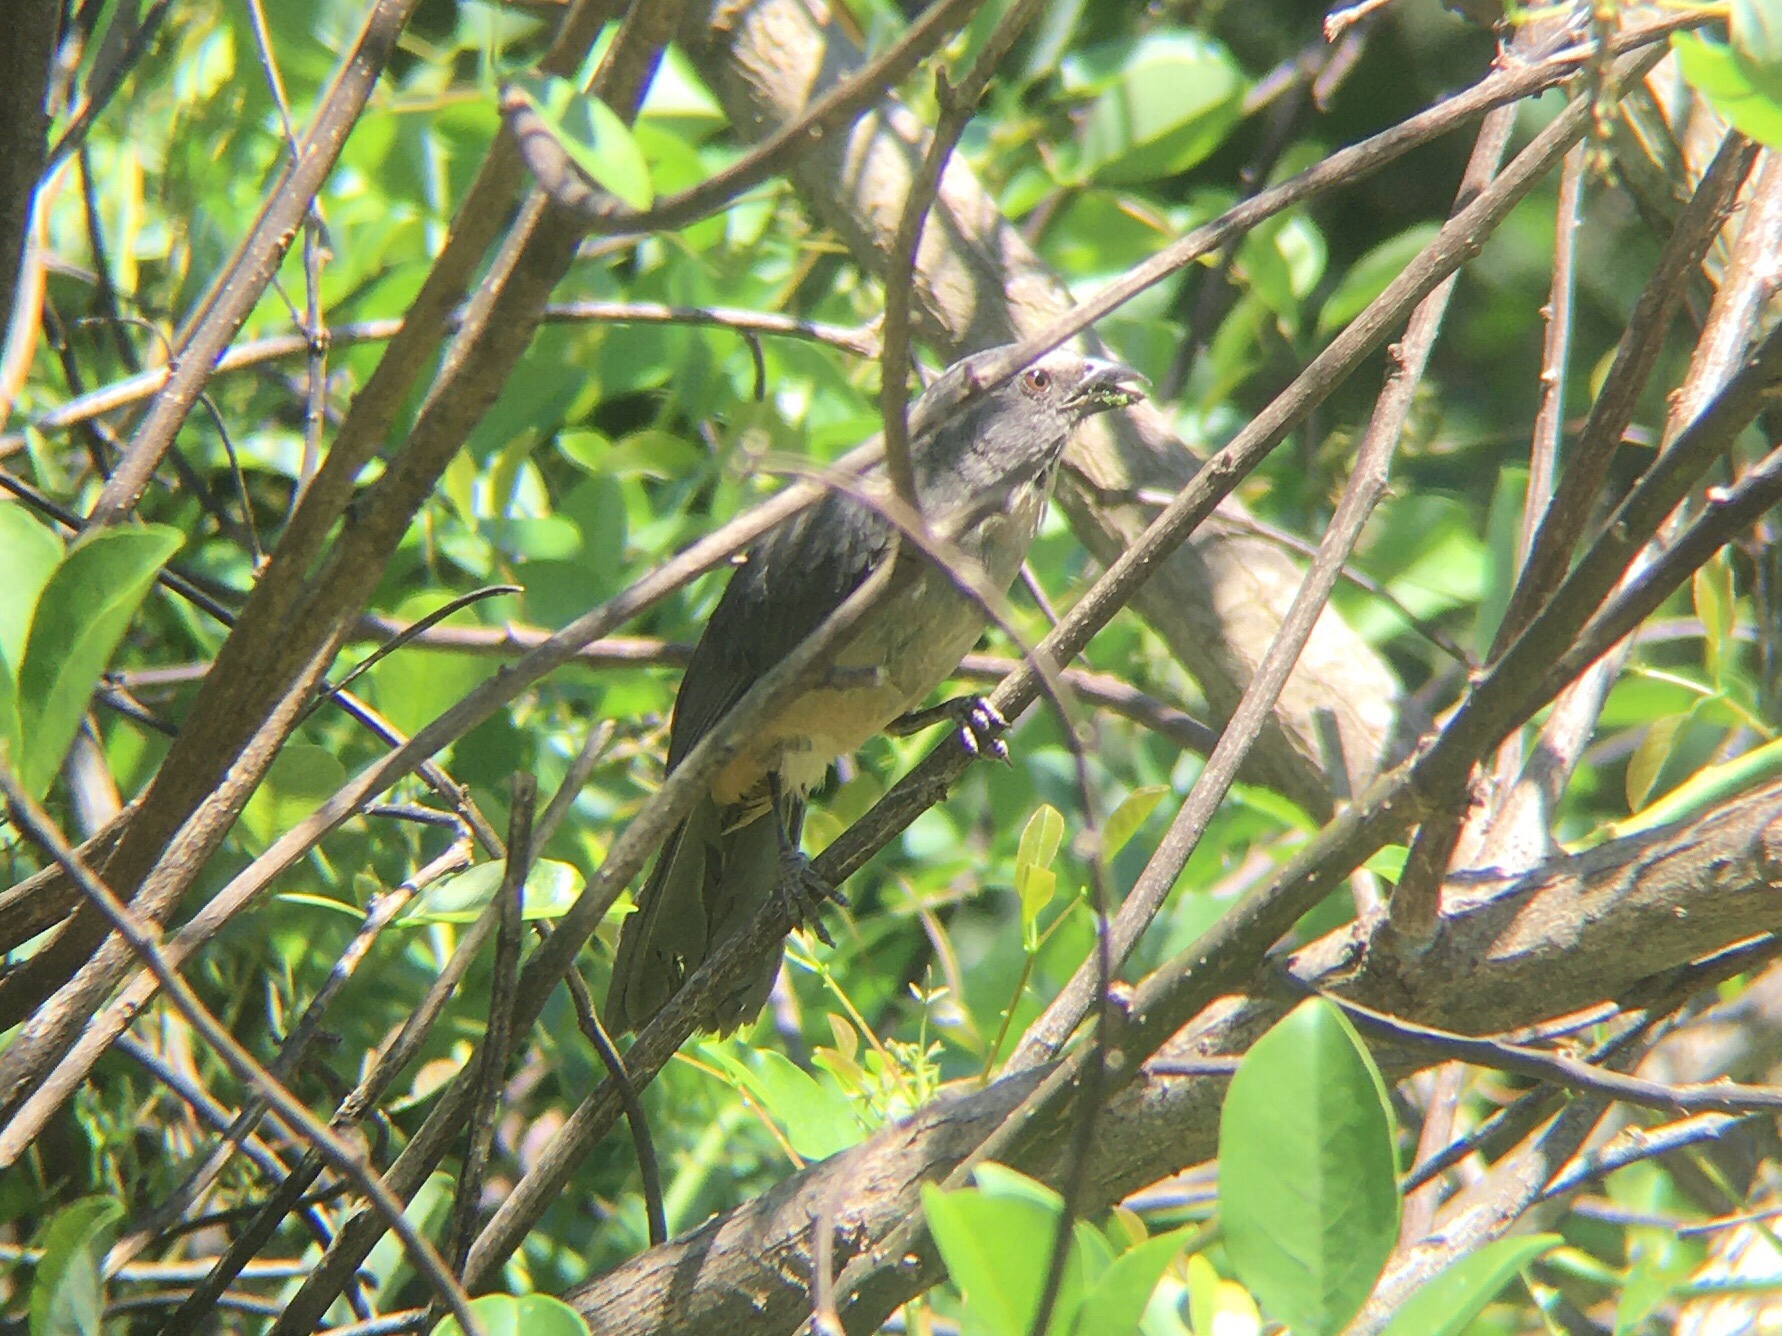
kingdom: Animalia
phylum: Chordata
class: Aves
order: Passeriformes
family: Thraupidae
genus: Saltator
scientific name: Saltator coerulescens
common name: Grayish saltator
